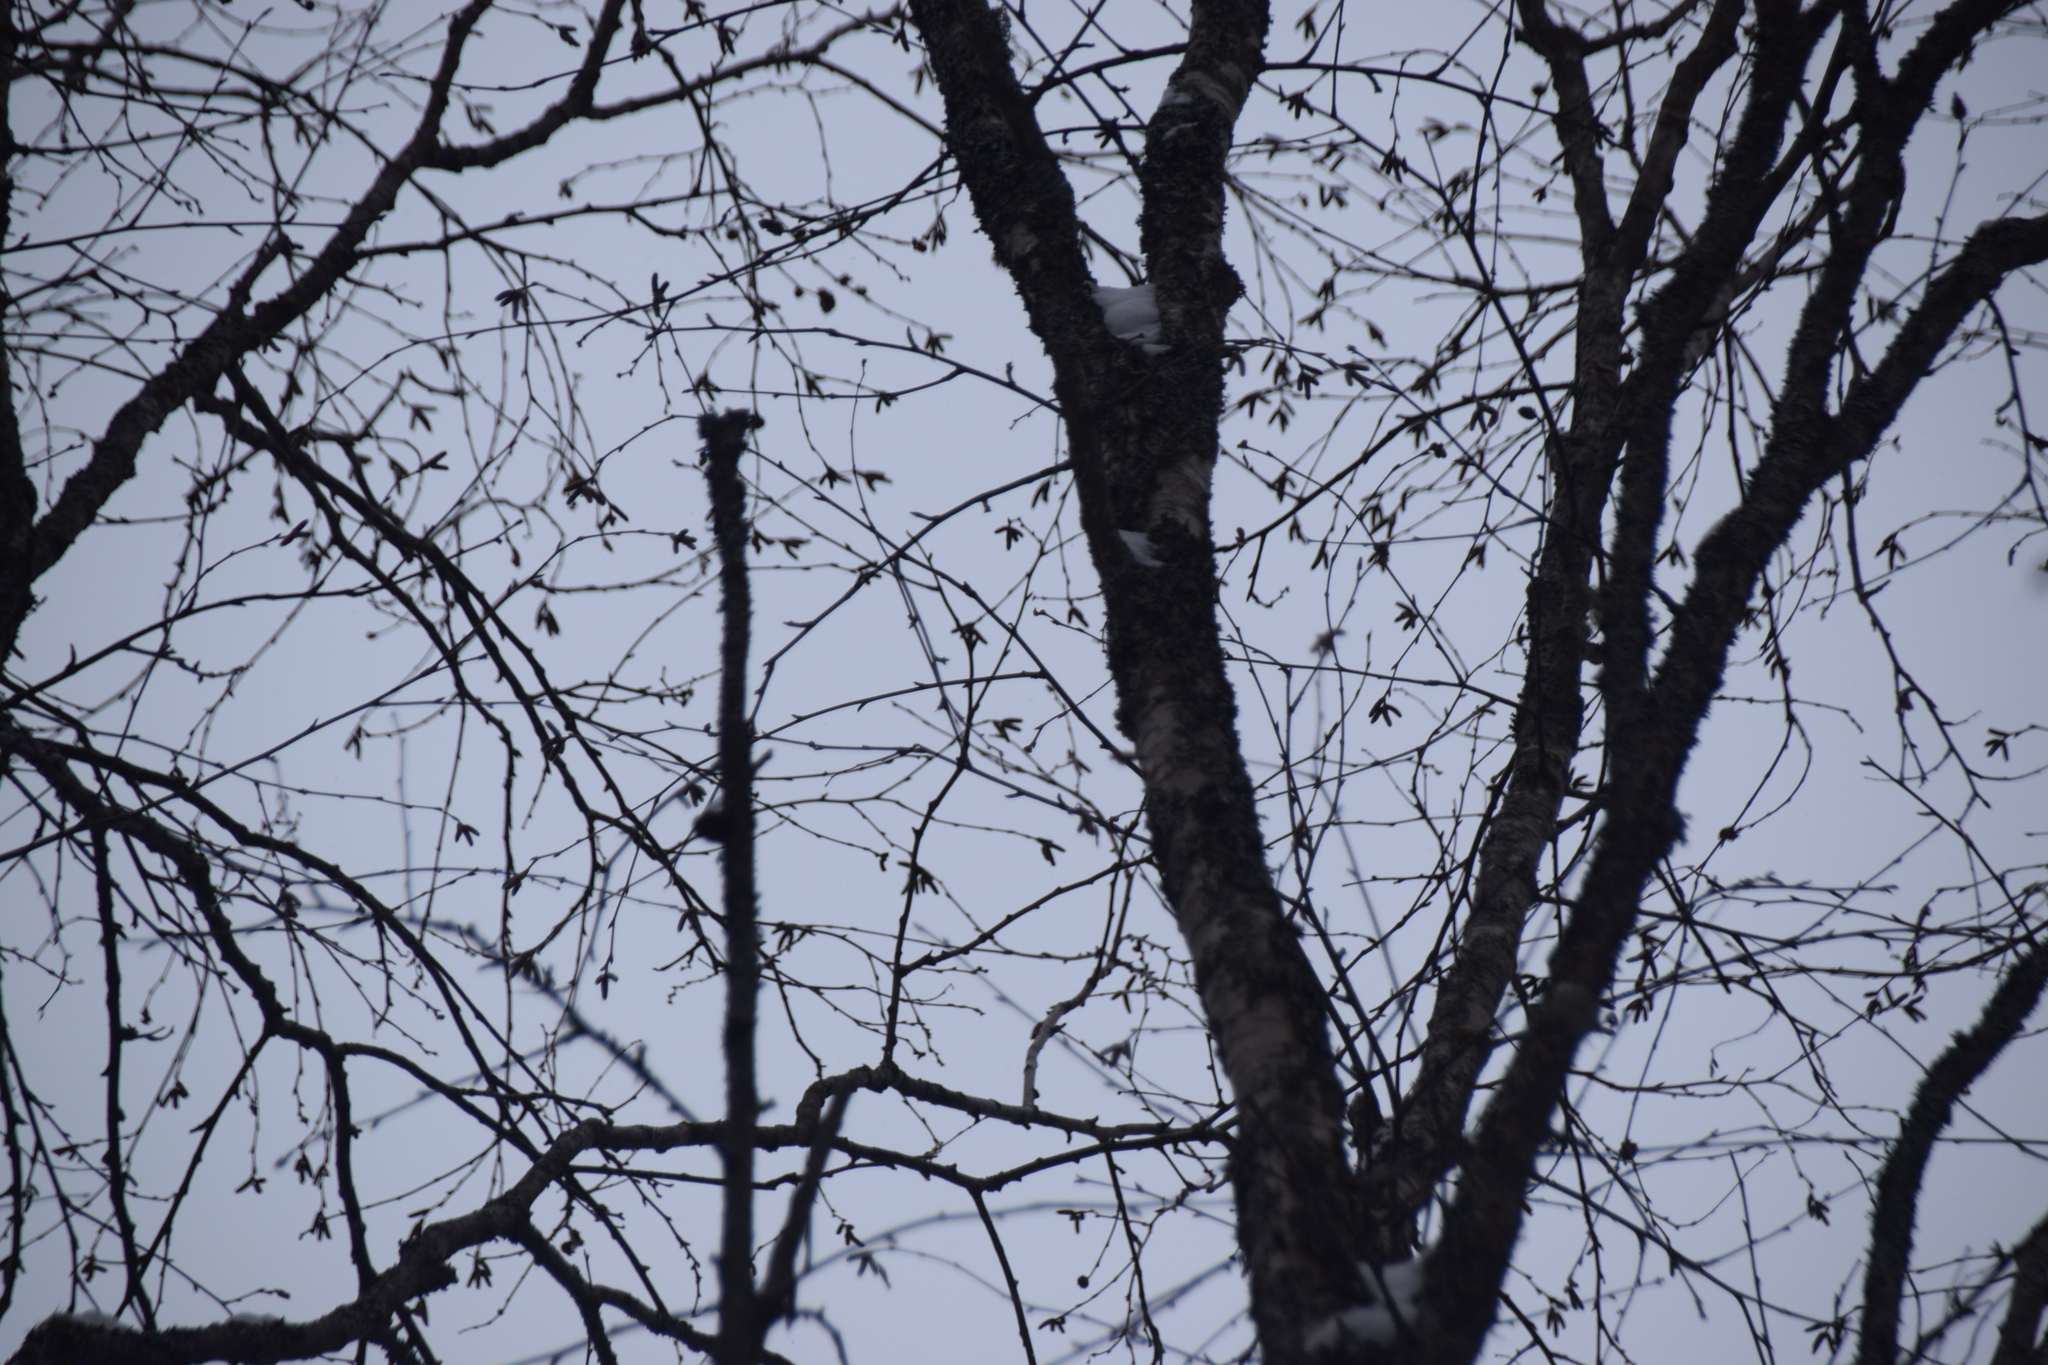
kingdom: Plantae
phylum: Tracheophyta
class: Magnoliopsida
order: Fagales
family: Betulaceae
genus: Betula
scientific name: Betula alleghaniensis
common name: Yellow birch
